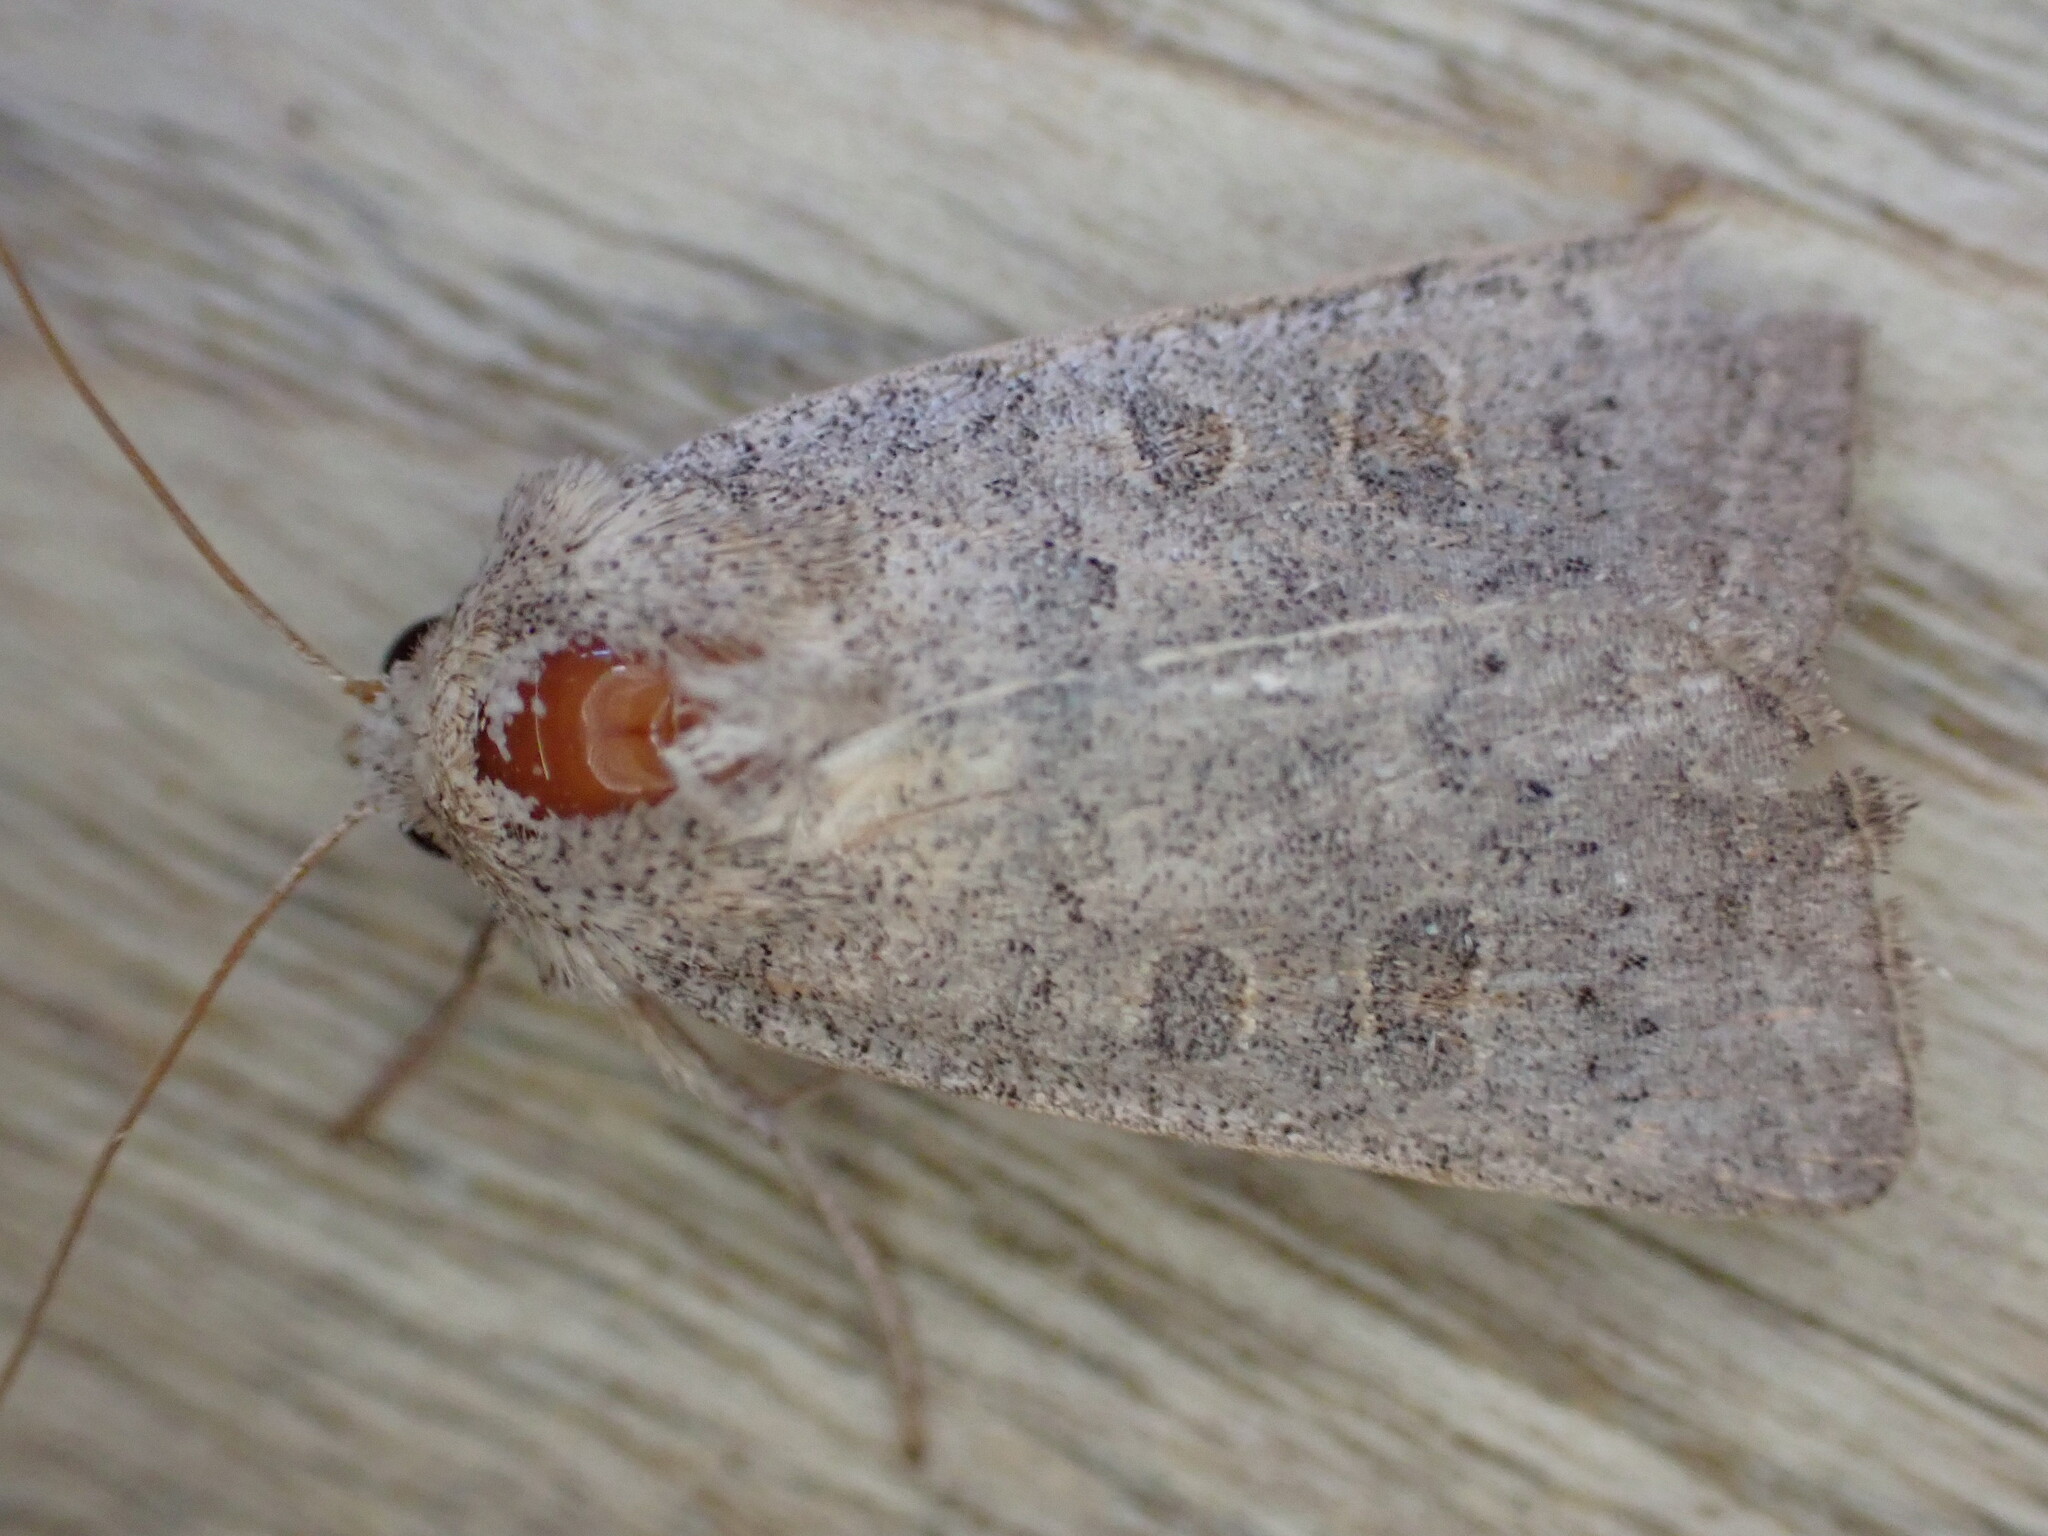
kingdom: Animalia
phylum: Arthropoda
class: Insecta
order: Lepidoptera
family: Noctuidae
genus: Hoplodrina
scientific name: Hoplodrina ambigua
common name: Vine's rustic
